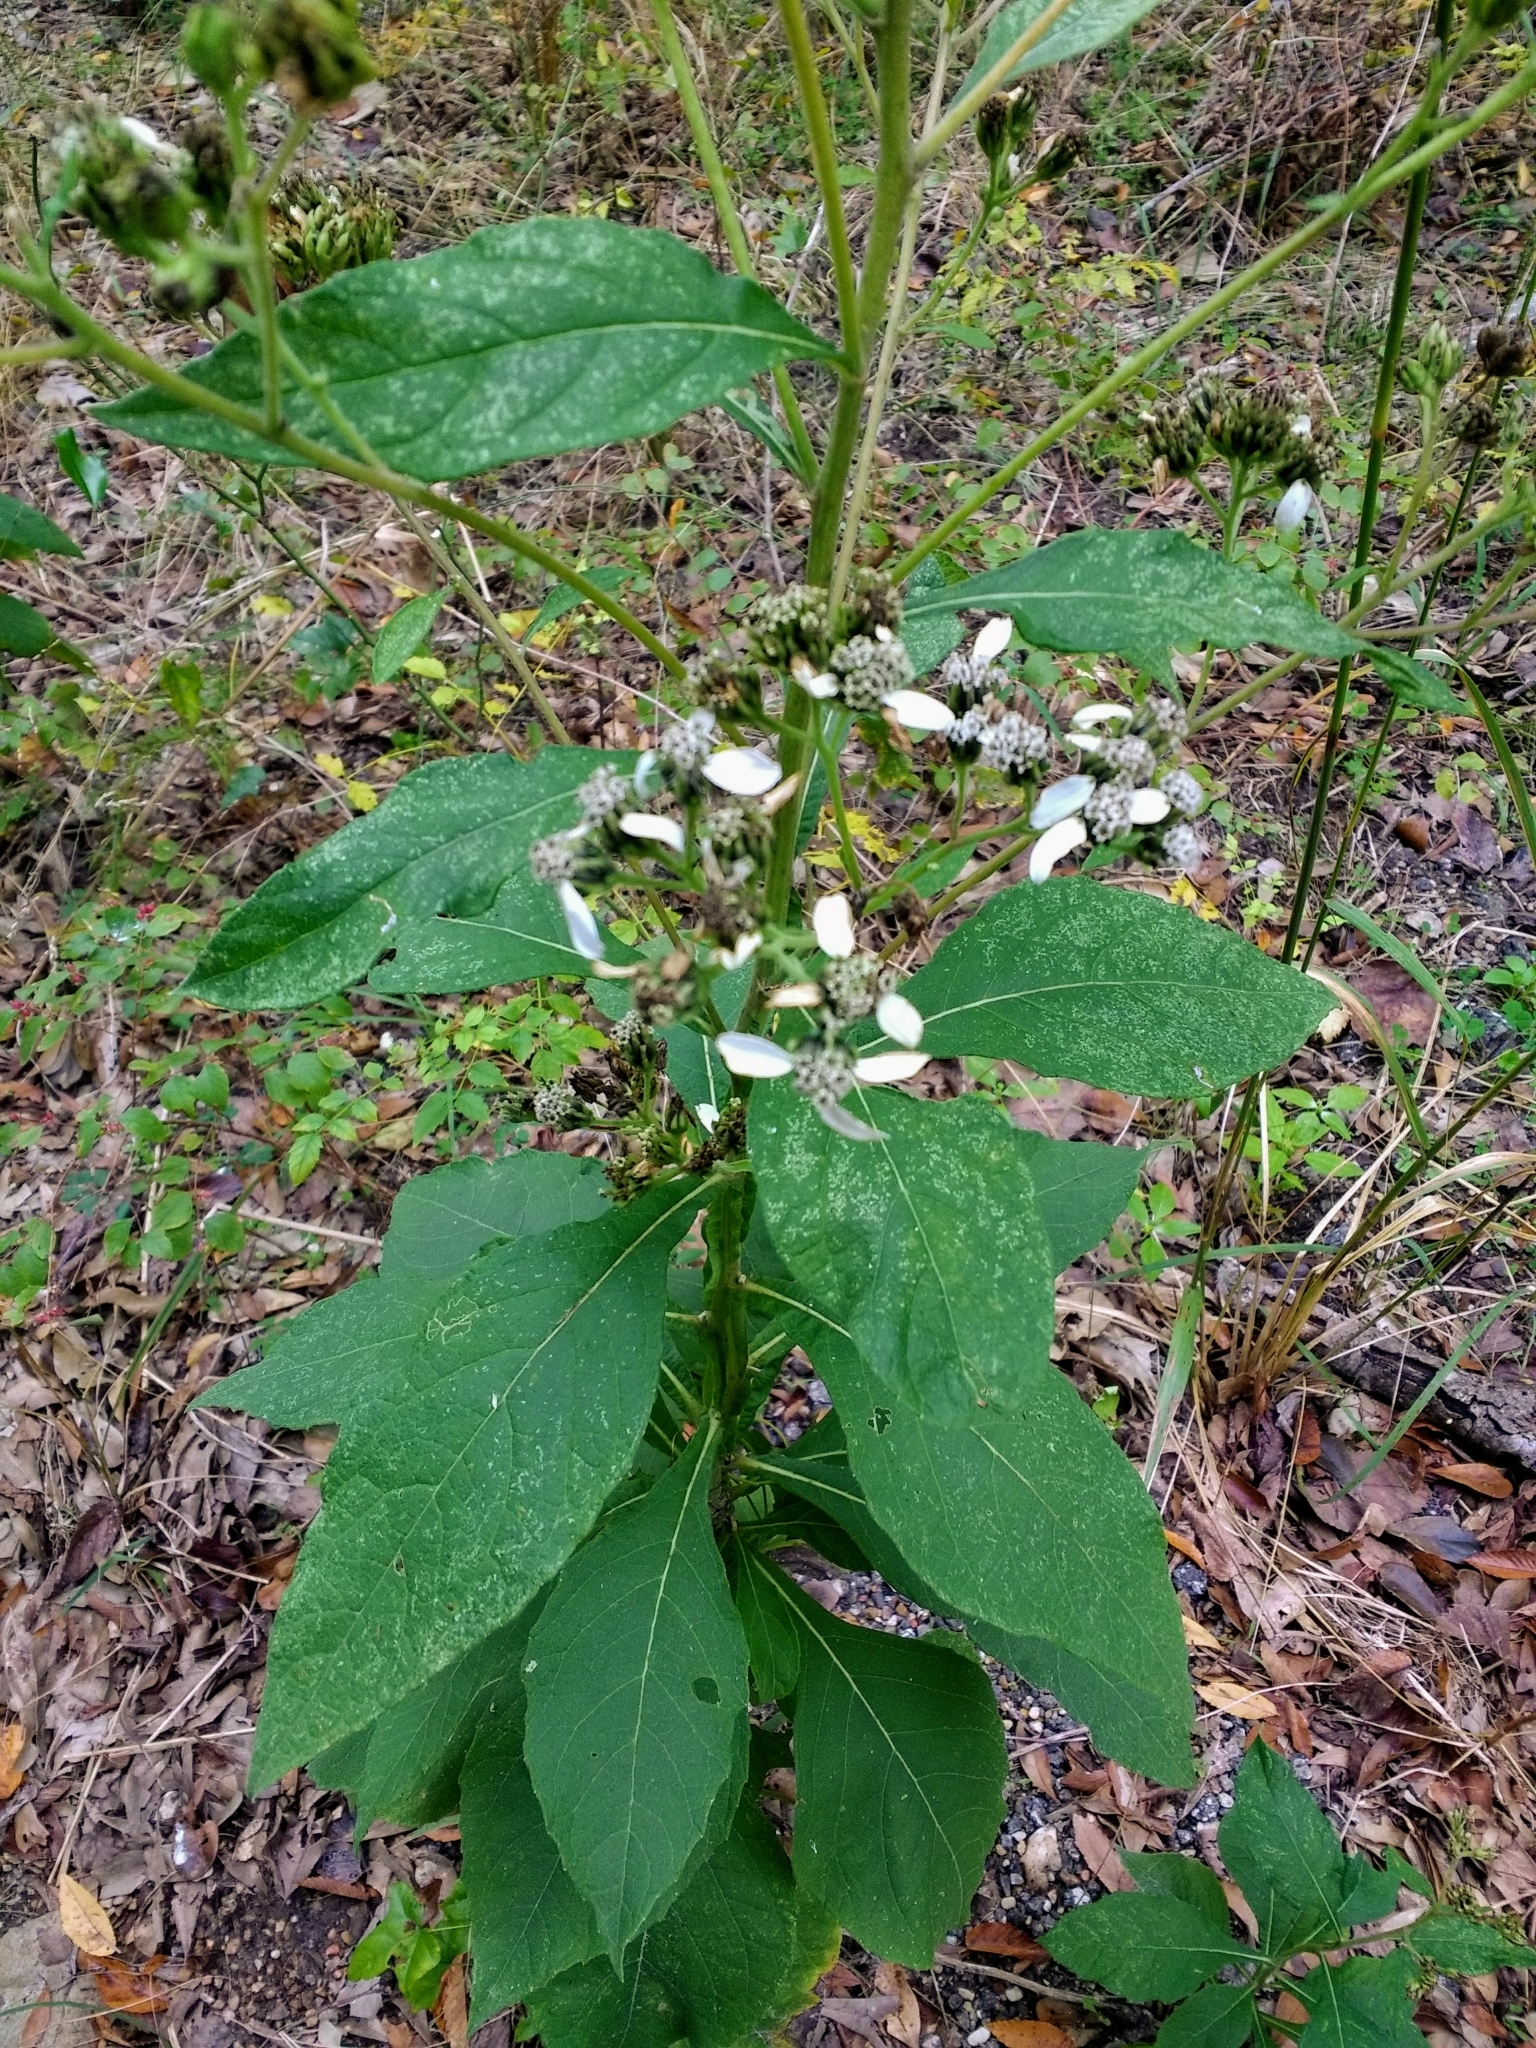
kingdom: Plantae
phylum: Tracheophyta
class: Magnoliopsida
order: Asterales
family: Asteraceae
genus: Verbesina
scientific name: Verbesina virginica
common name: Frostweed
